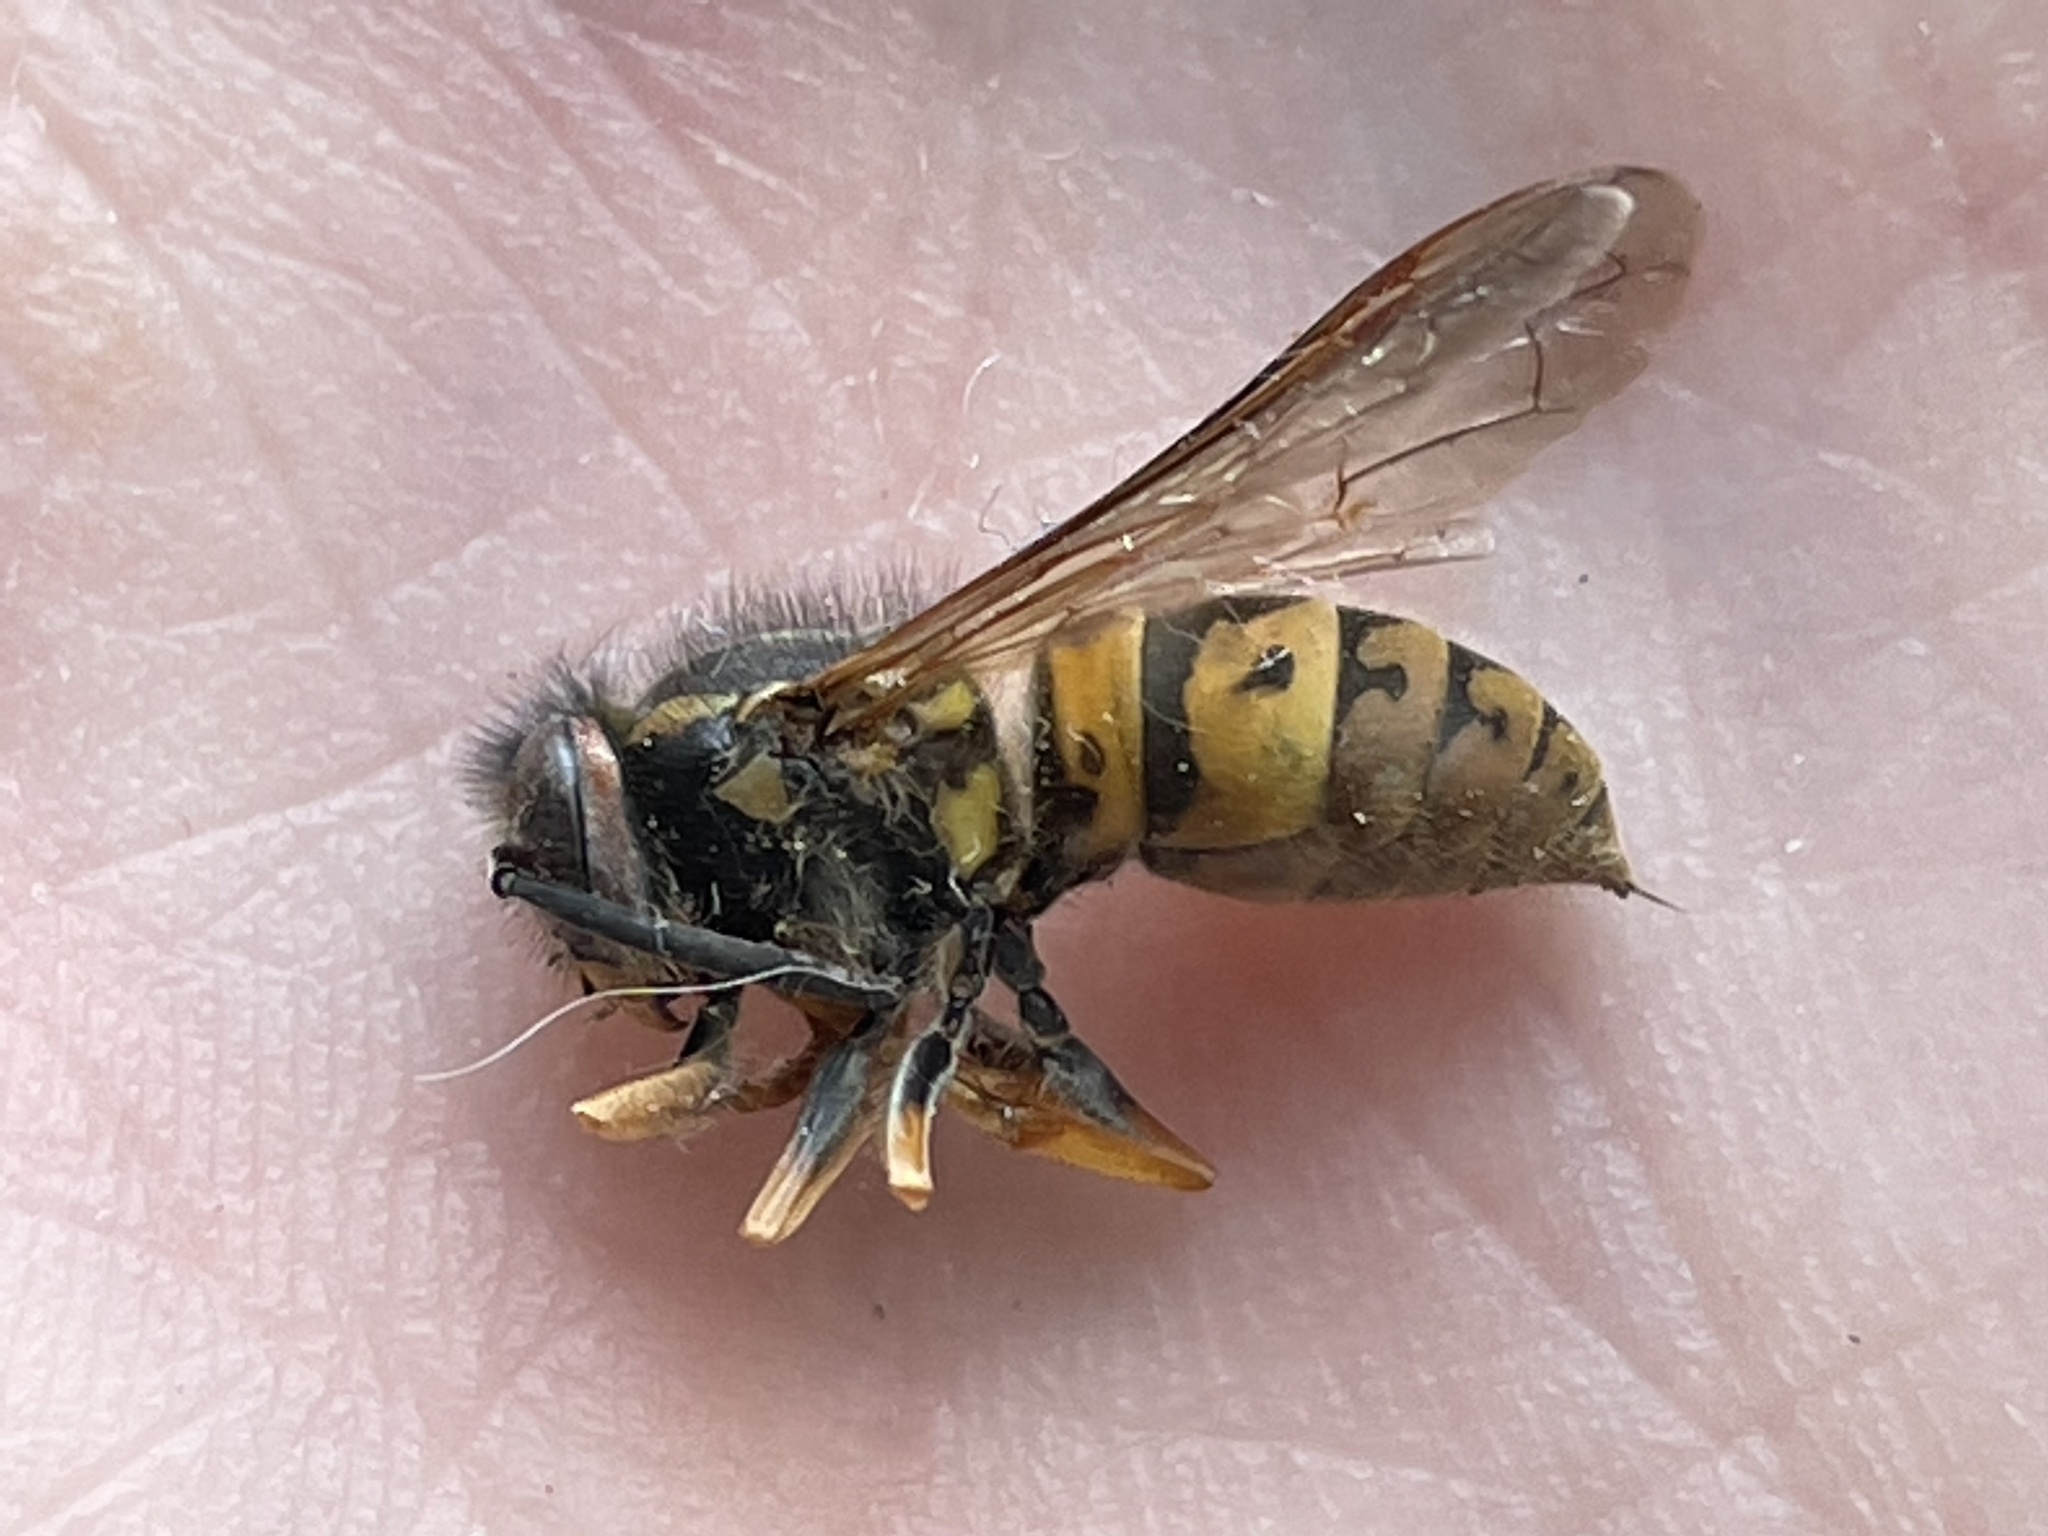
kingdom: Animalia
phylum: Arthropoda
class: Insecta
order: Hymenoptera
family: Vespidae
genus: Vespula
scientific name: Vespula germanica
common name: German wasp
